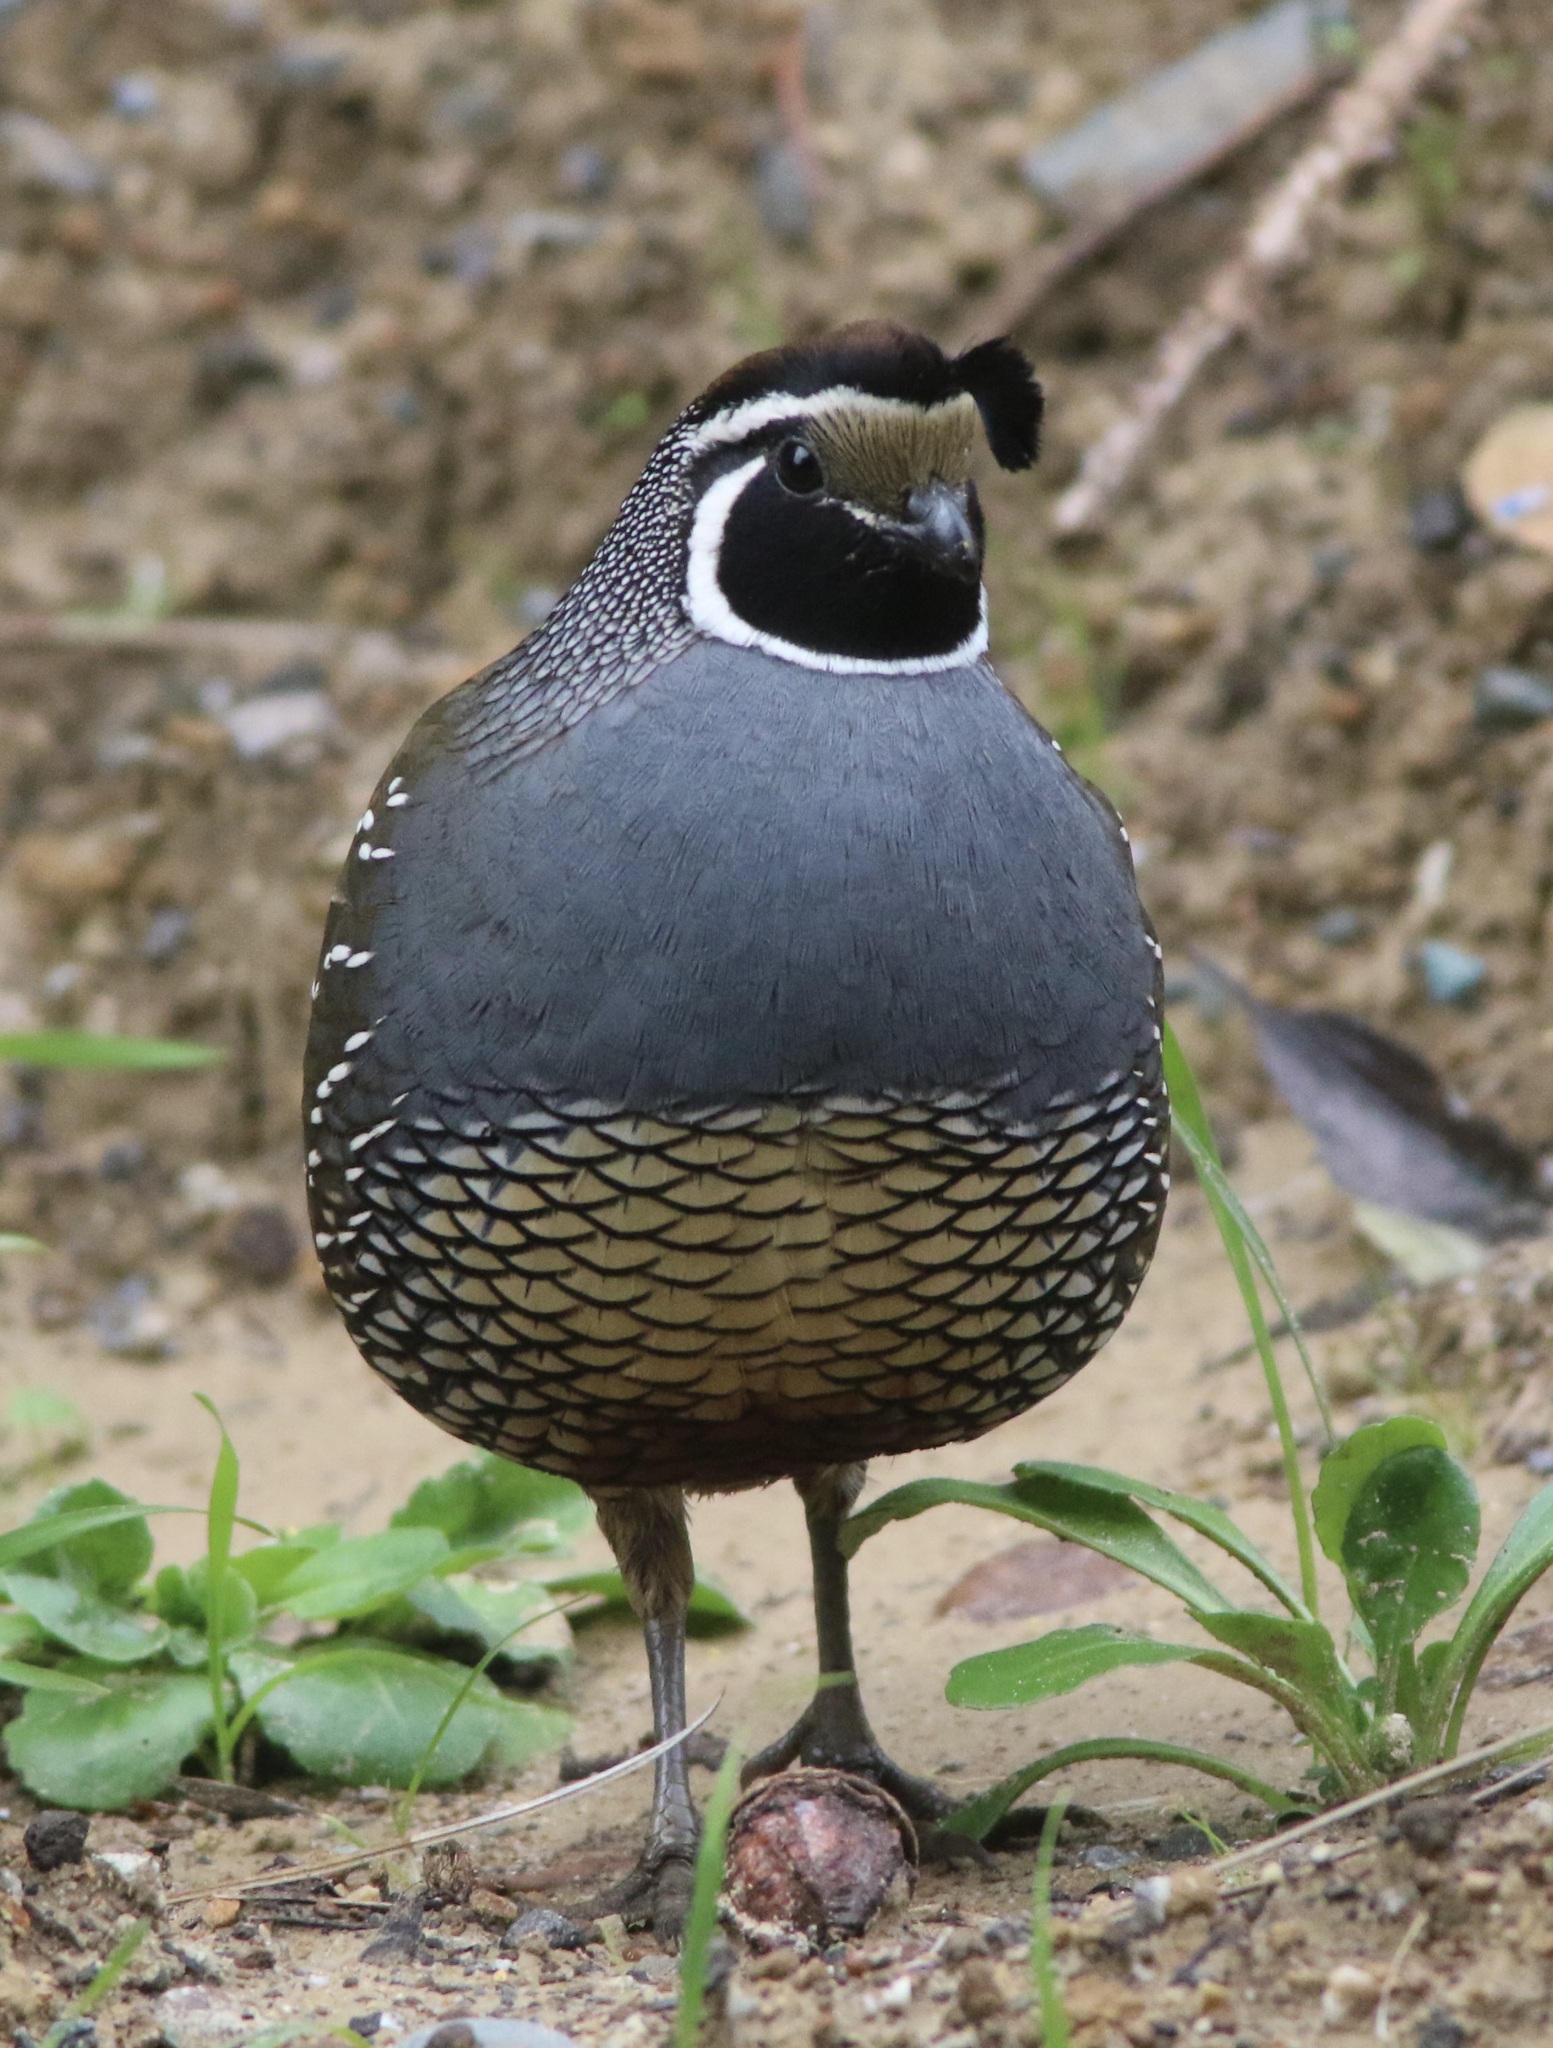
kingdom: Animalia
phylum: Chordata
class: Aves
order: Galliformes
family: Odontophoridae
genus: Callipepla
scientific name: Callipepla californica
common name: California quail
